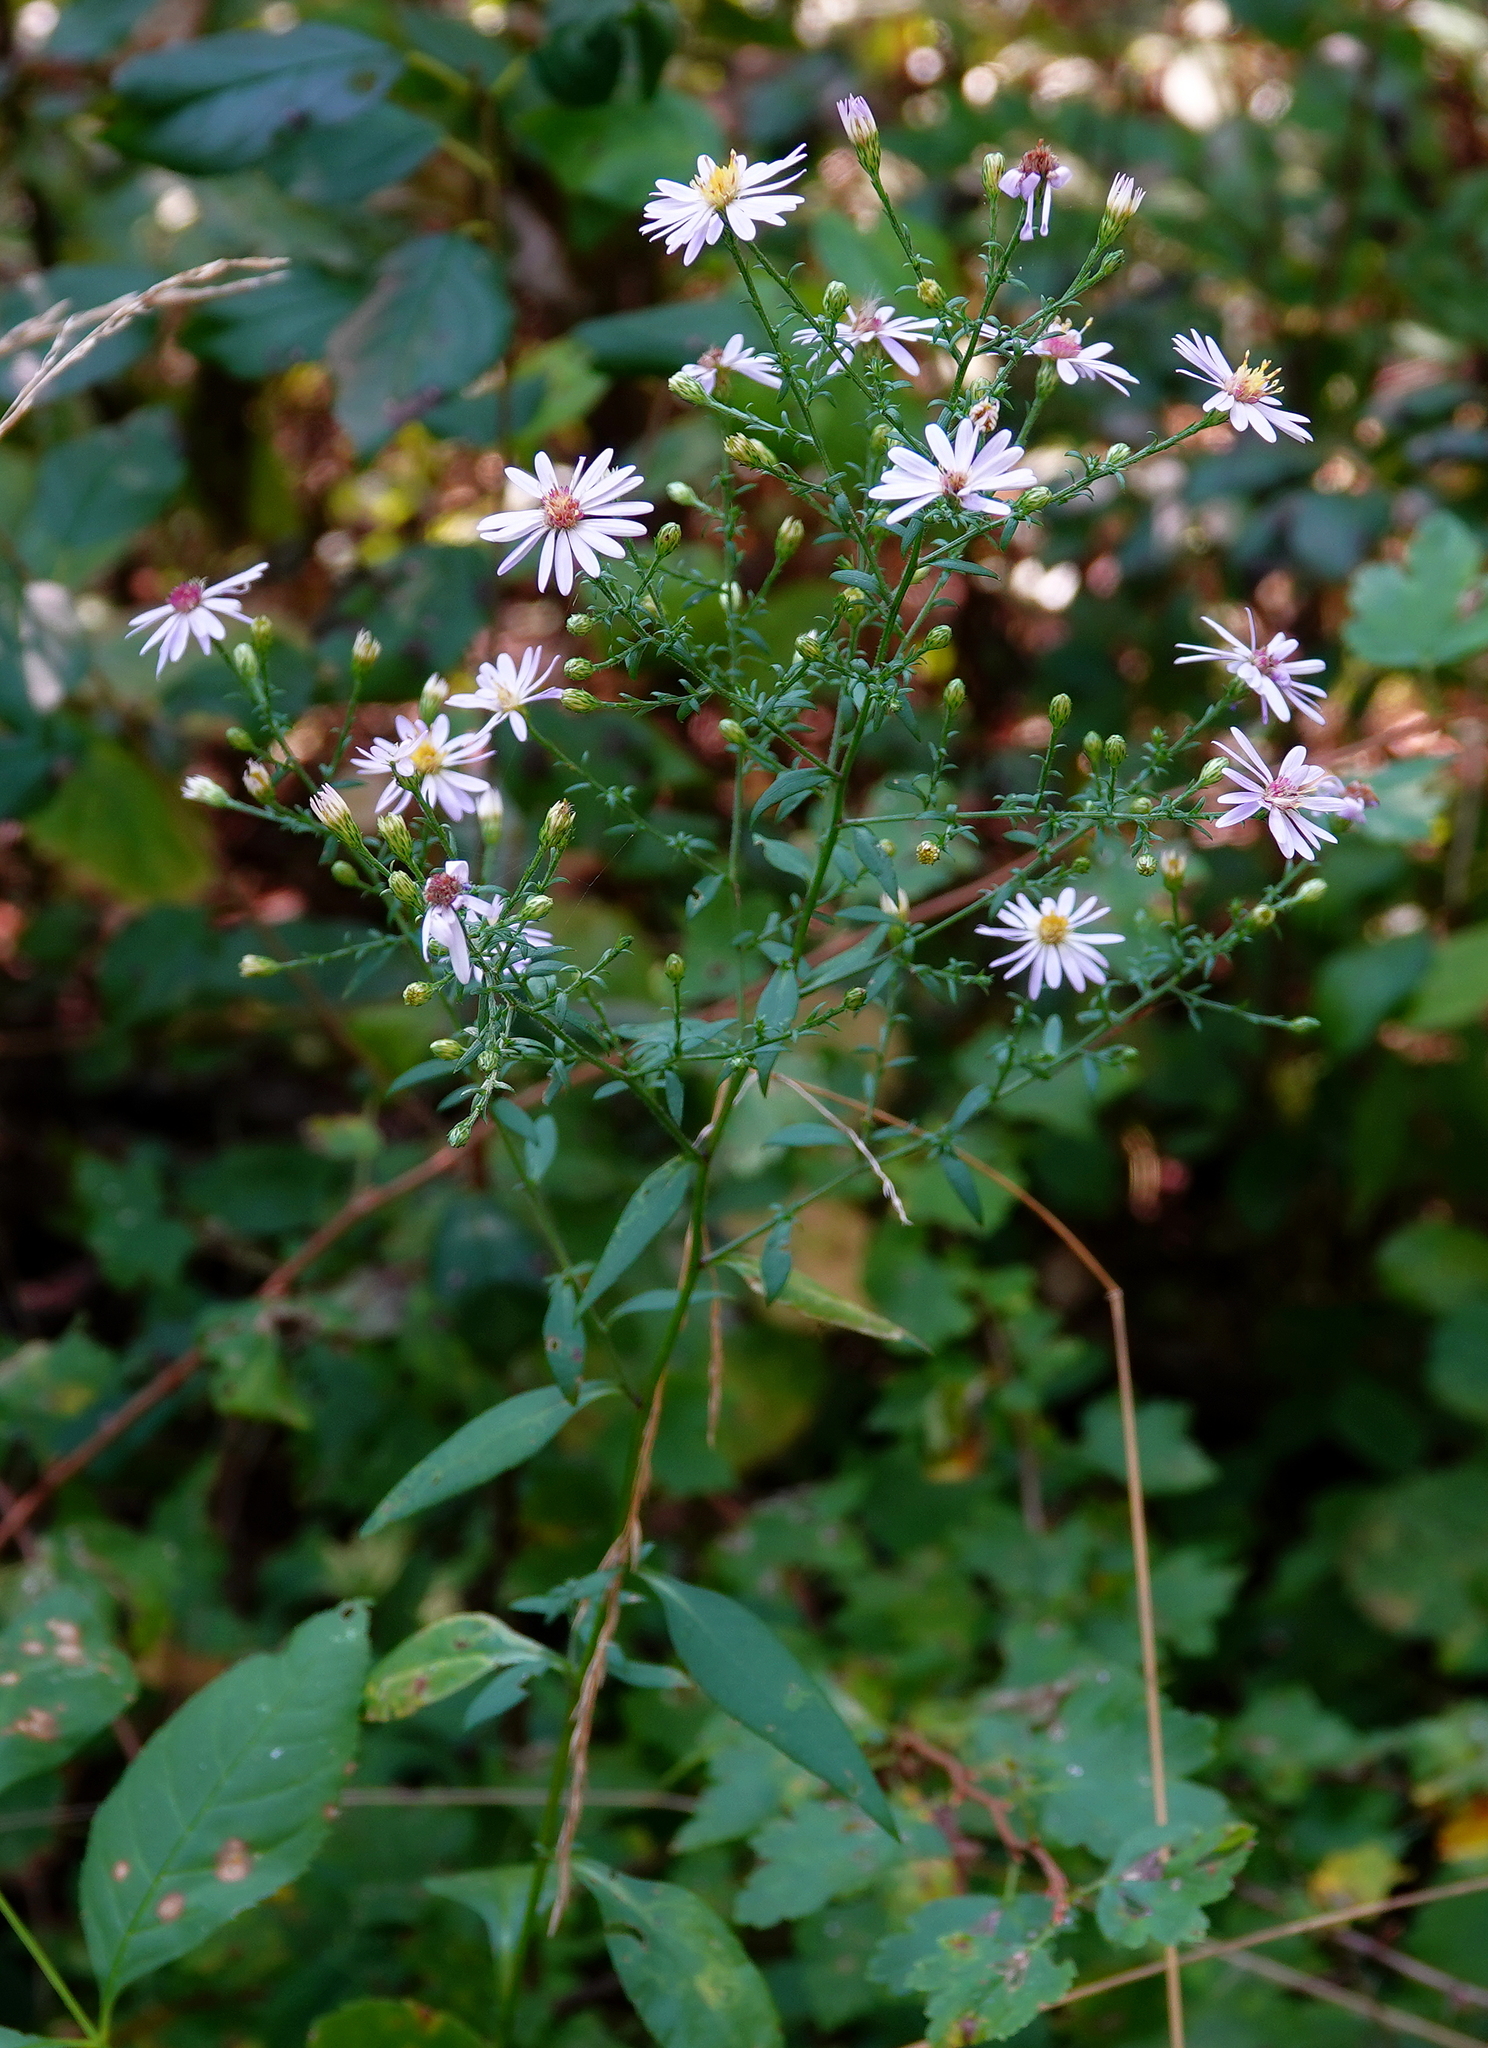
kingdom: Plantae
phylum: Tracheophyta
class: Magnoliopsida
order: Asterales
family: Asteraceae
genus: Symphyotrichum
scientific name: Symphyotrichum ciliolatum
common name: Fringed blue aster
